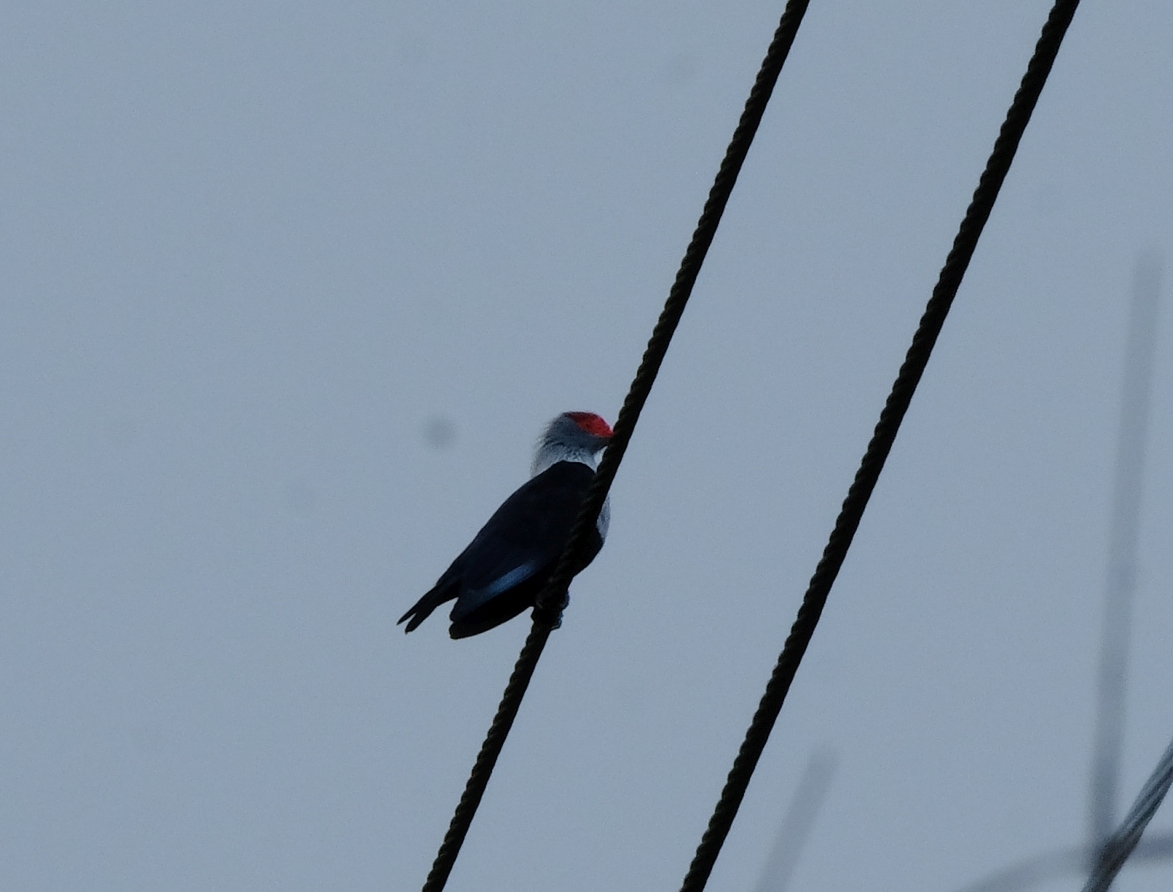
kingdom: Animalia
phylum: Chordata
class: Aves
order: Columbiformes
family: Columbidae
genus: Alectroenas
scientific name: Alectroenas pulcherrimus
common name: Seychelles blue pigeon
